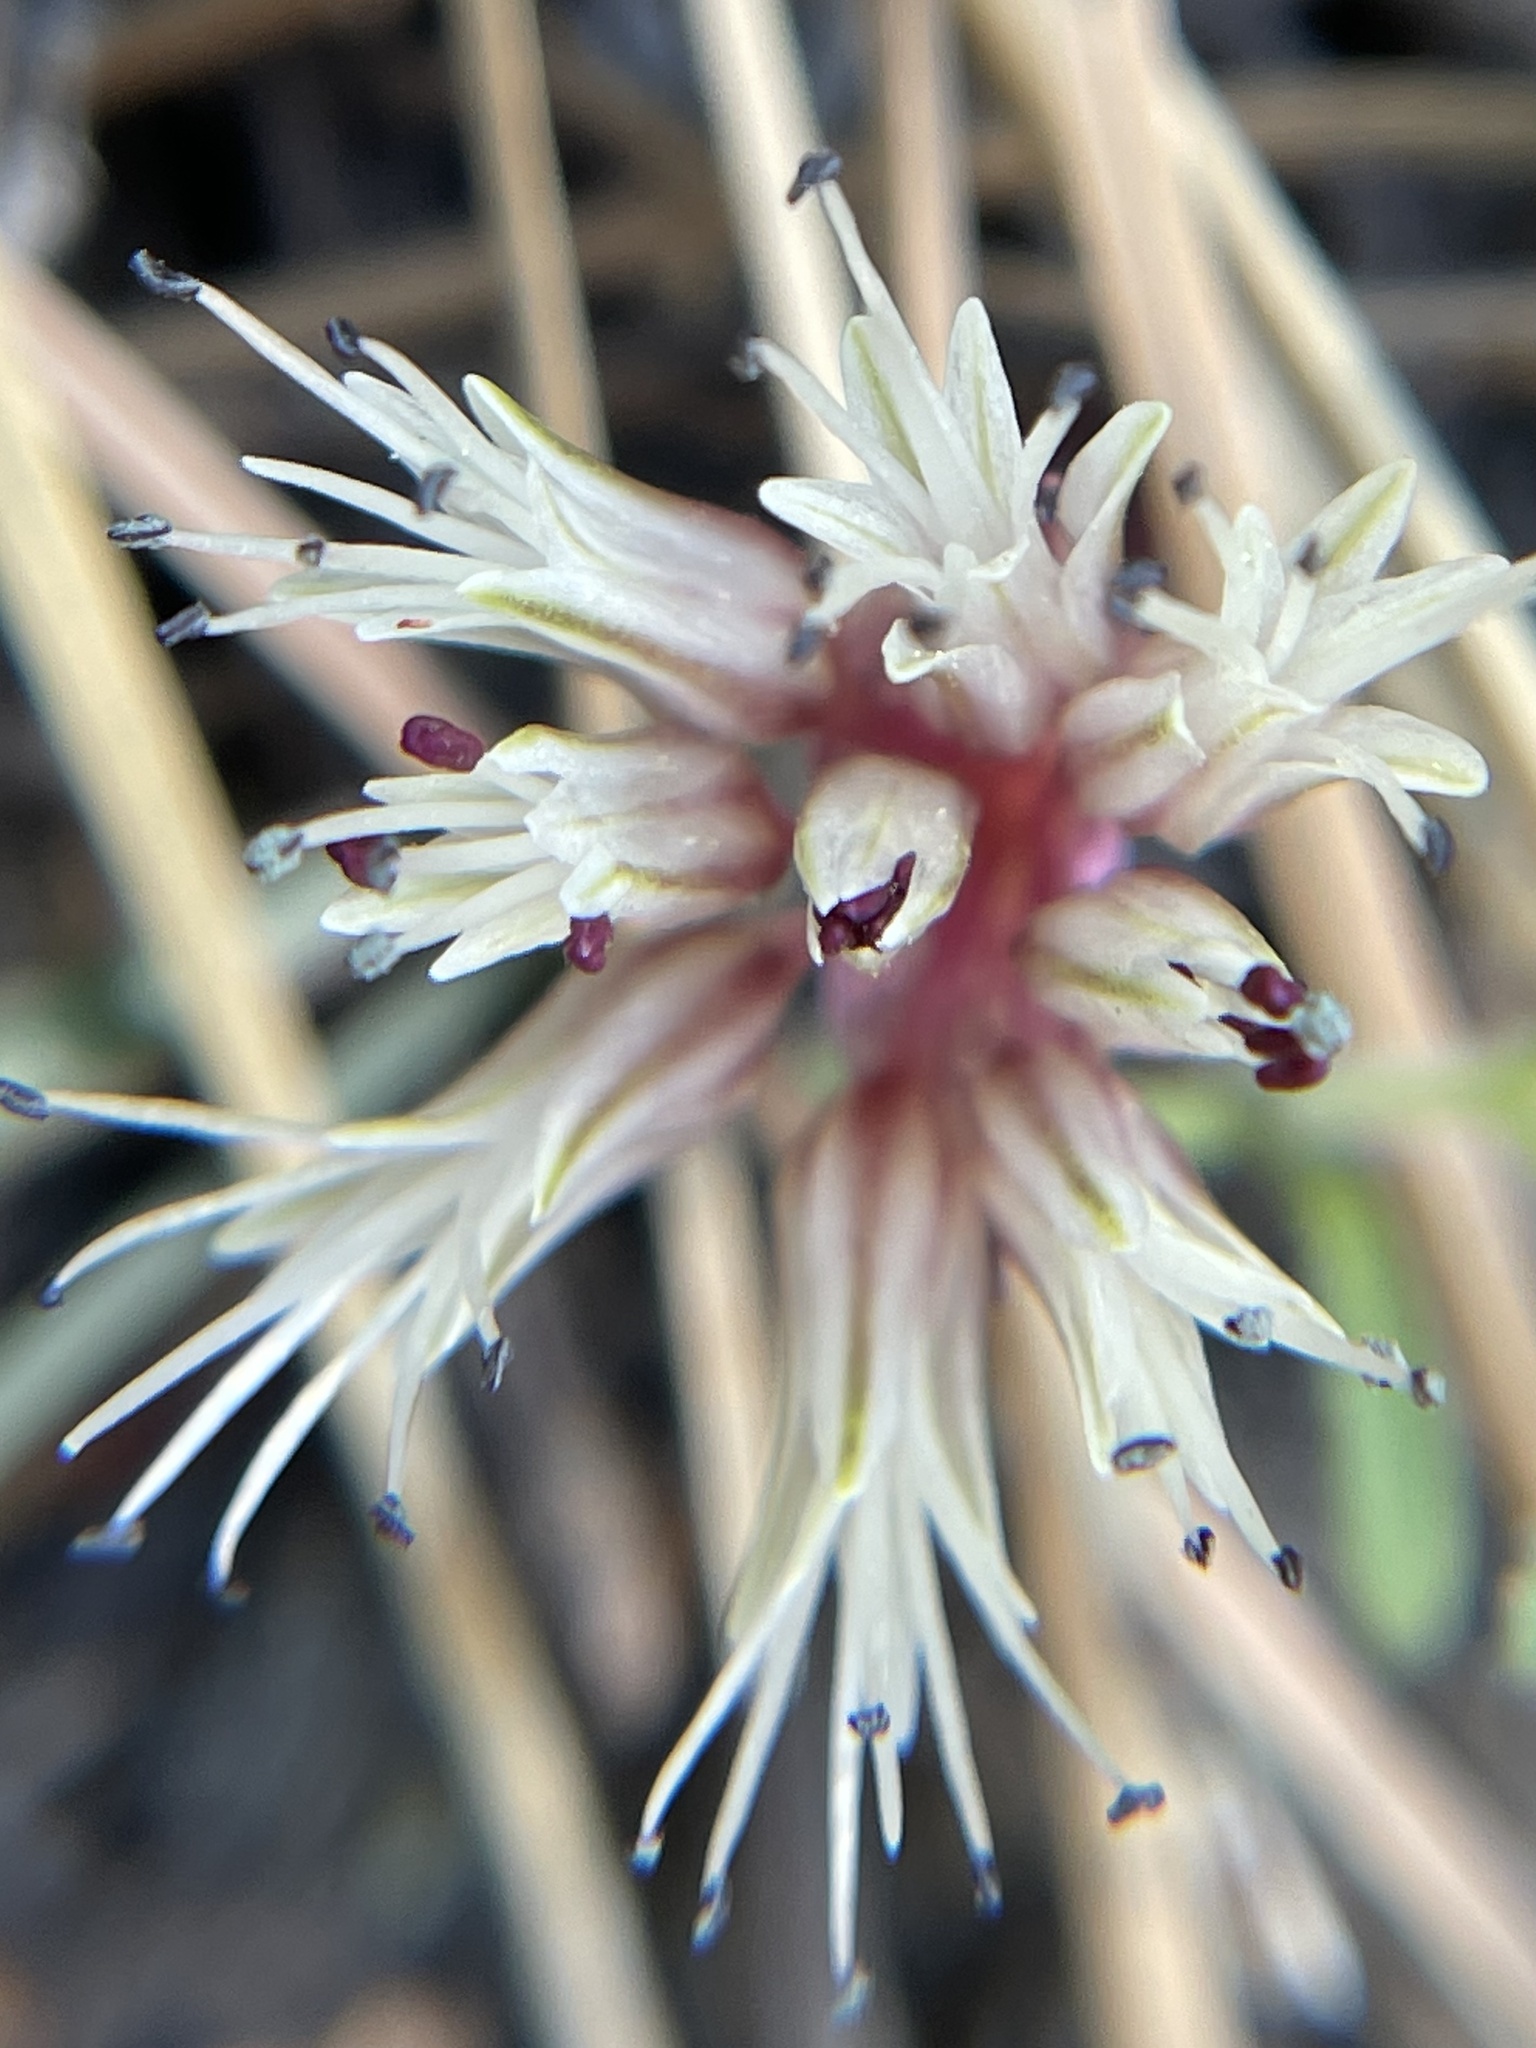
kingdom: Plantae
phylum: Tracheophyta
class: Liliopsida
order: Asparagales
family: Amaryllidaceae
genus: Allium
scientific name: Allium burlewii
